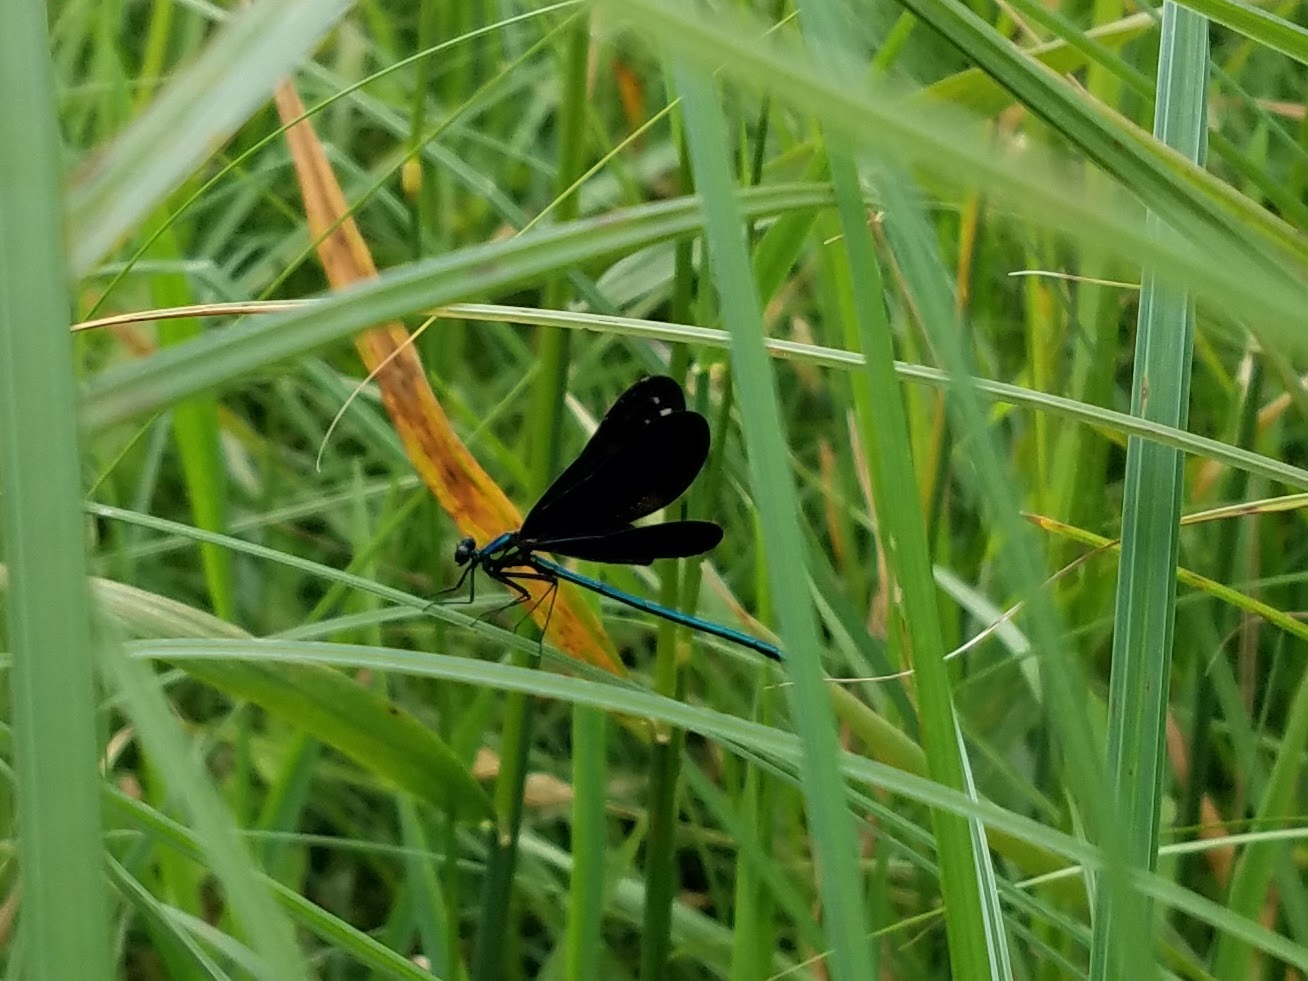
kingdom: Animalia
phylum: Arthropoda
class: Insecta
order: Odonata
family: Calopterygidae
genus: Calopteryx
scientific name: Calopteryx maculata
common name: Ebony jewelwing
